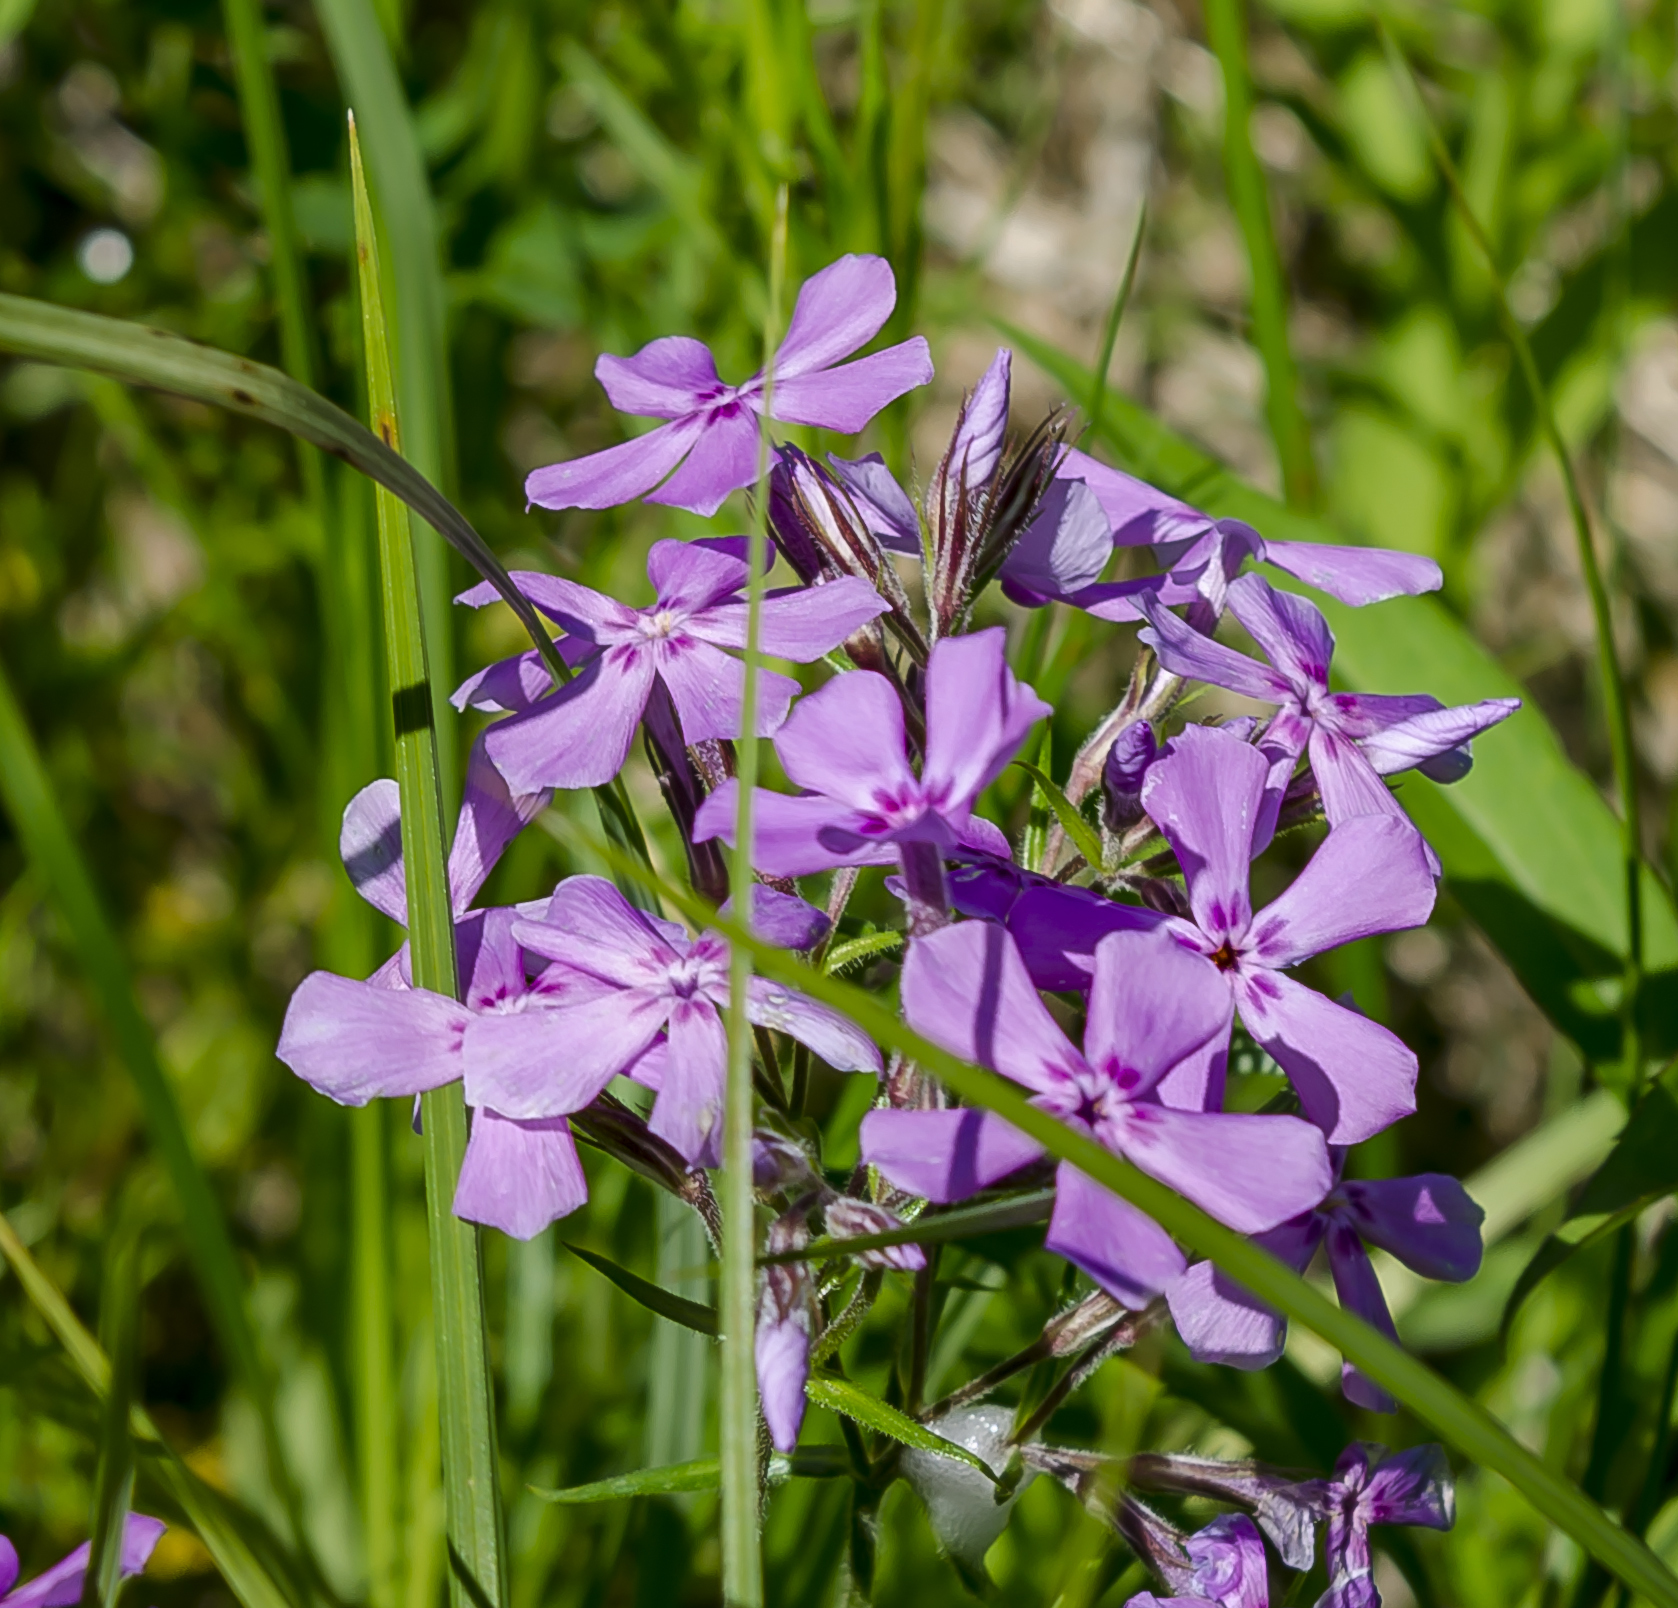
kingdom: Plantae
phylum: Tracheophyta
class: Magnoliopsida
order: Ericales
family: Polemoniaceae
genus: Phlox
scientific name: Phlox pilosa
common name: Prairie phlox
